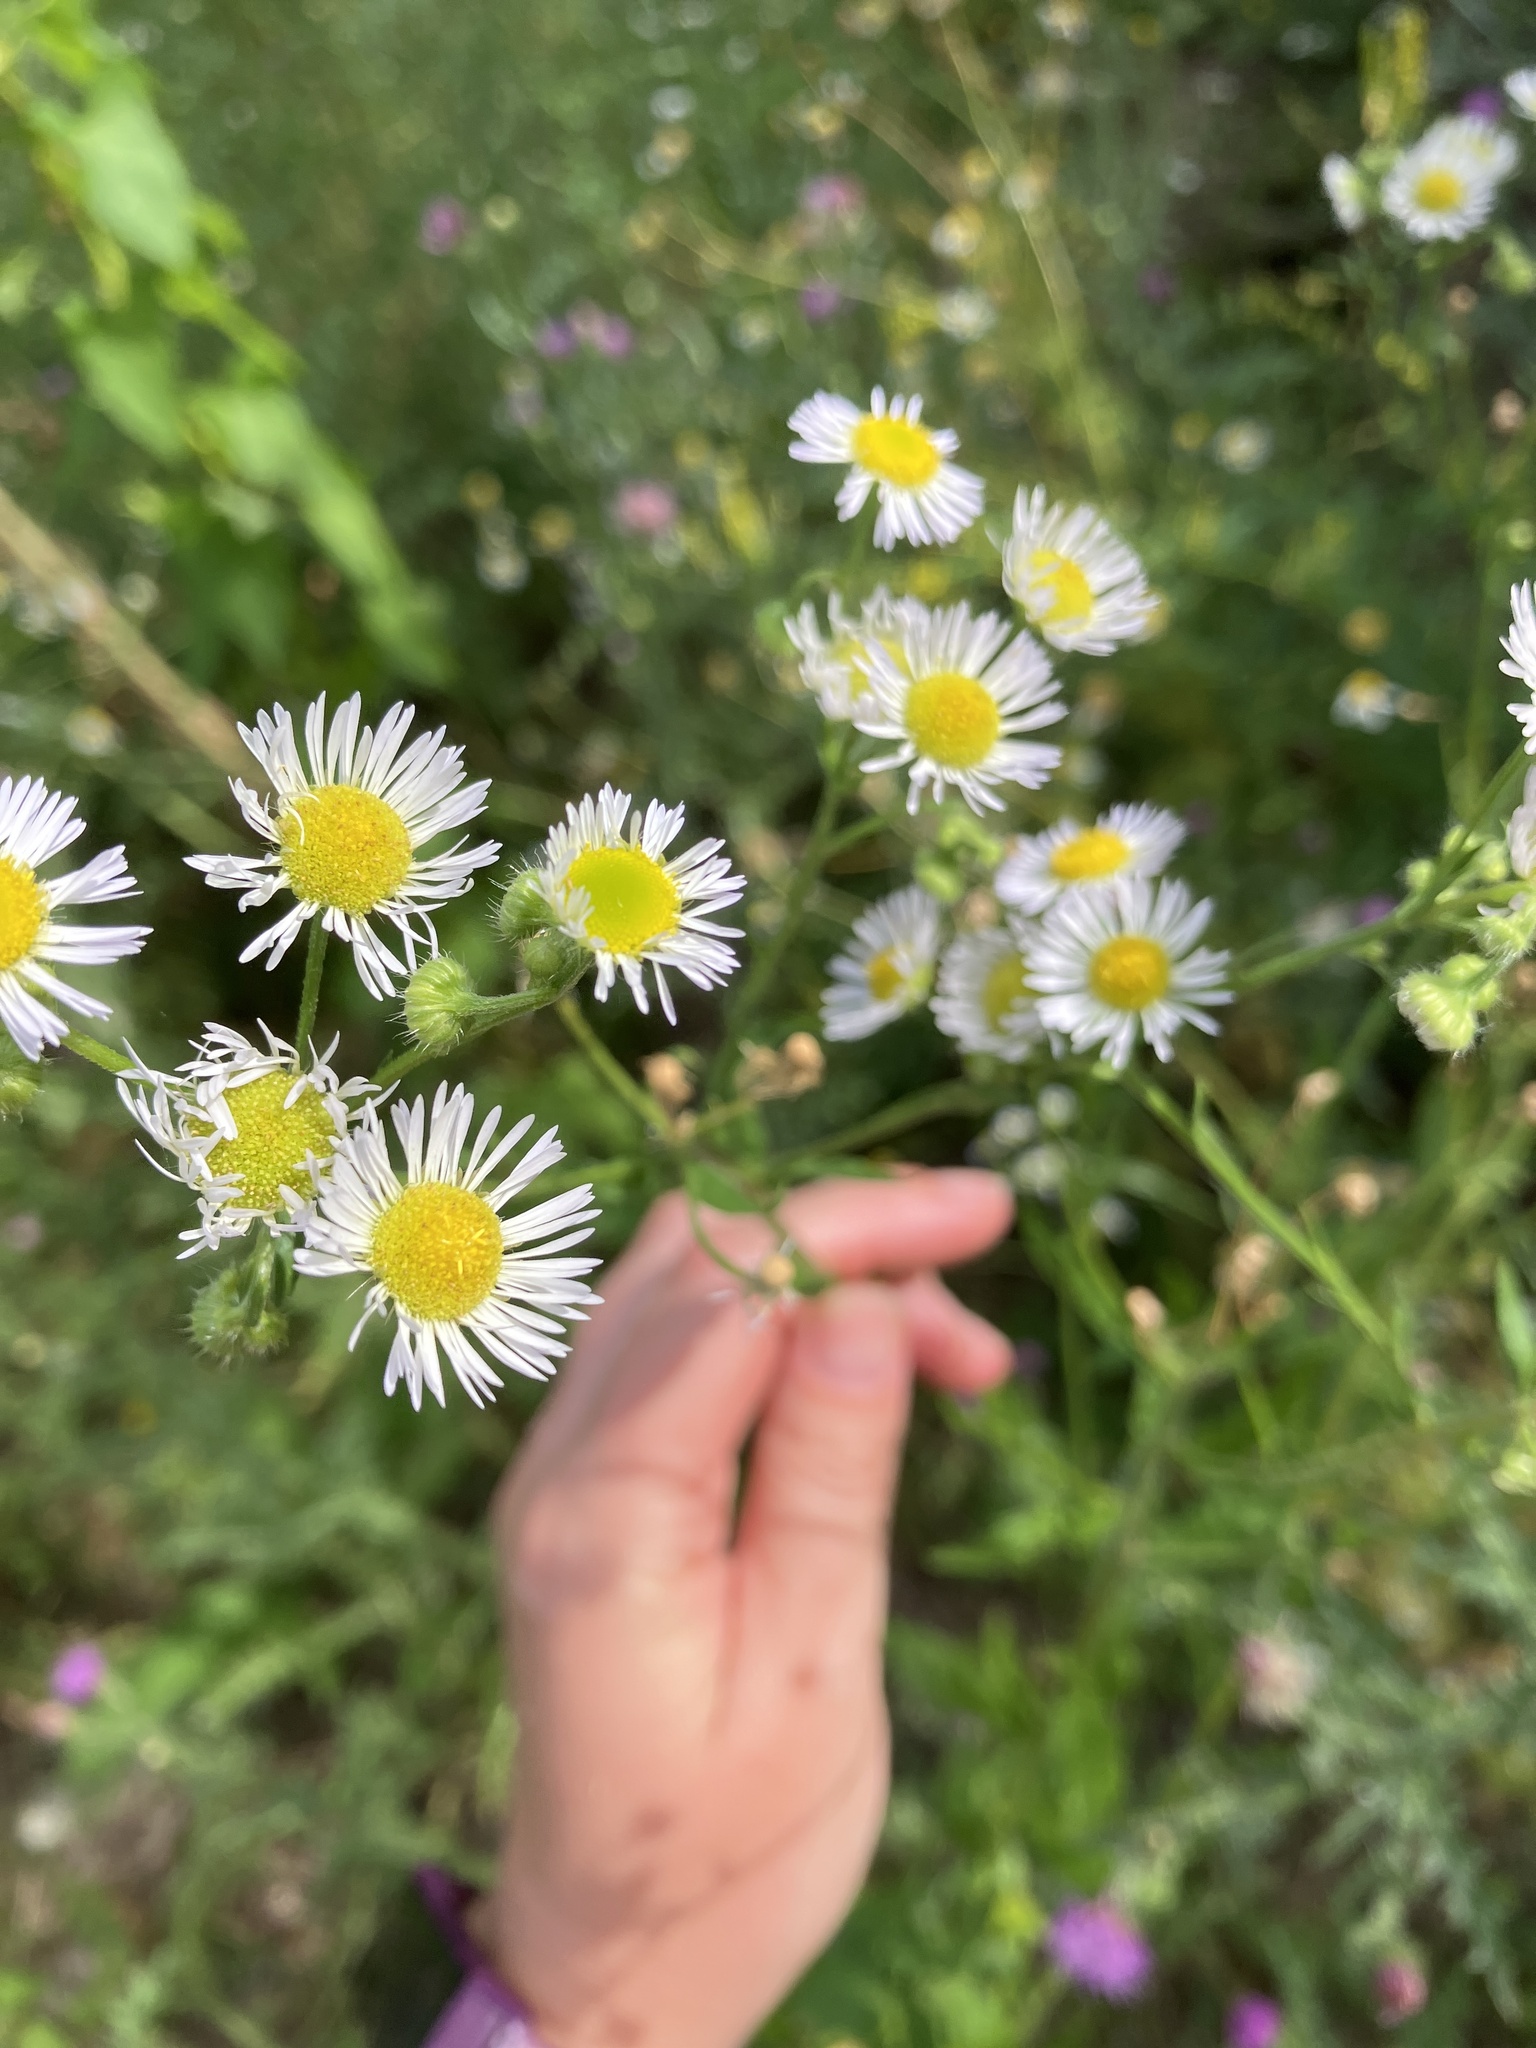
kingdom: Plantae
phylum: Tracheophyta
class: Magnoliopsida
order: Asterales
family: Asteraceae
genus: Erigeron
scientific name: Erigeron annuus
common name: Tall fleabane
